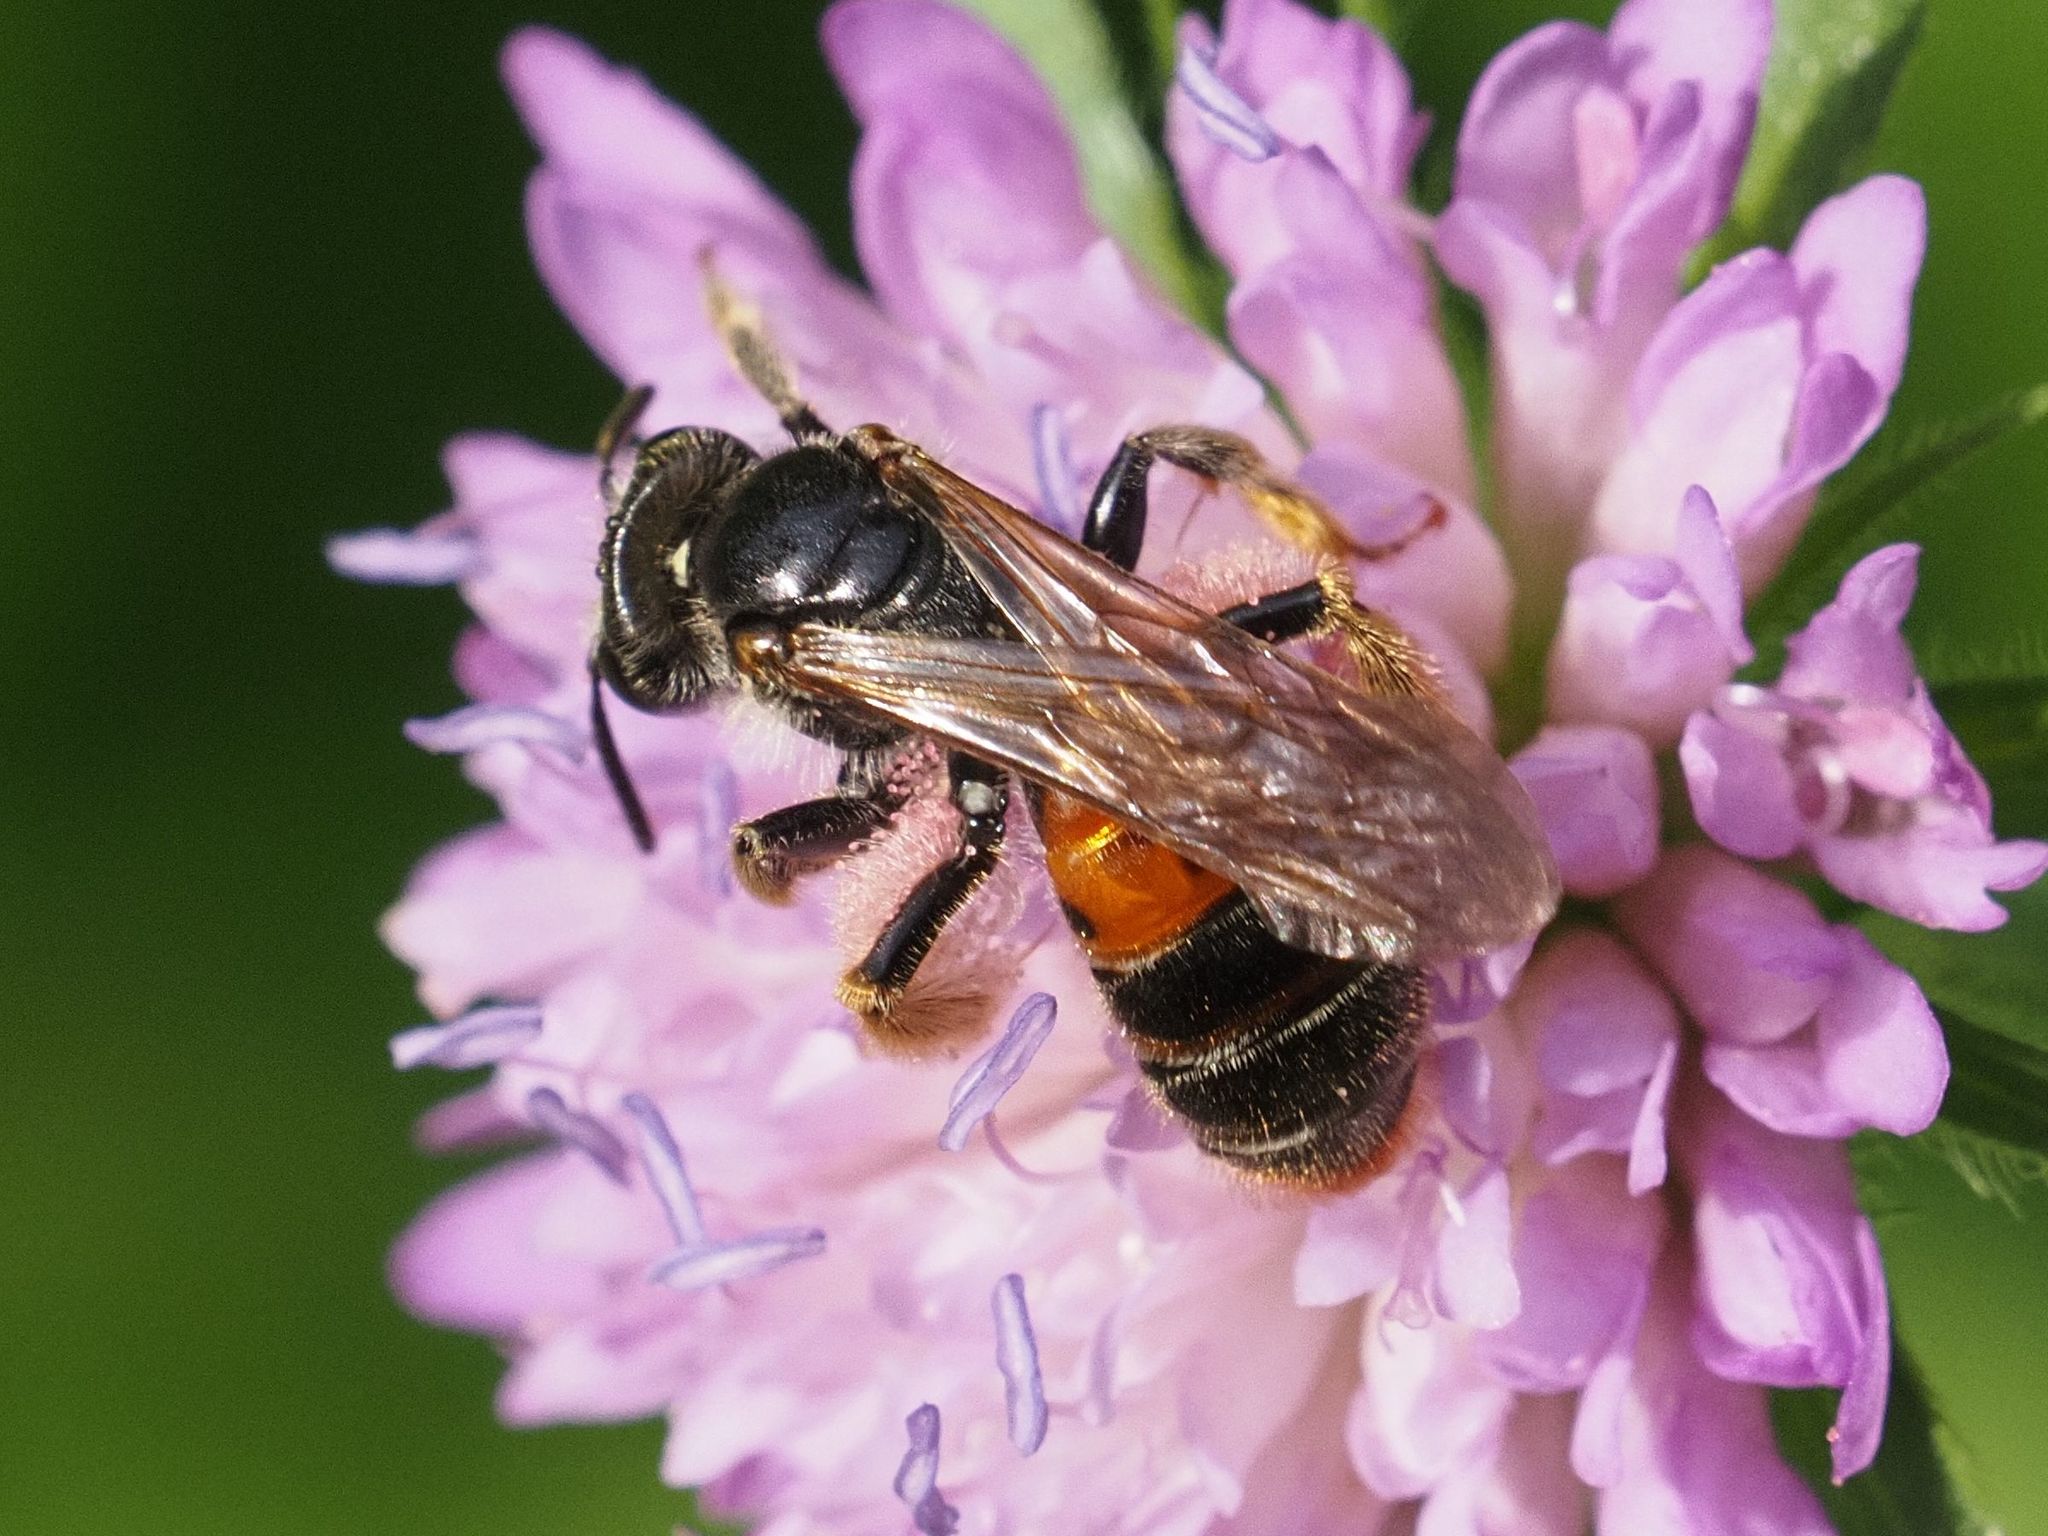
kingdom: Animalia
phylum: Arthropoda
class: Insecta
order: Hymenoptera
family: Andrenidae
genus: Andrena
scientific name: Andrena hattorfiana
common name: Large scabious mining bee
